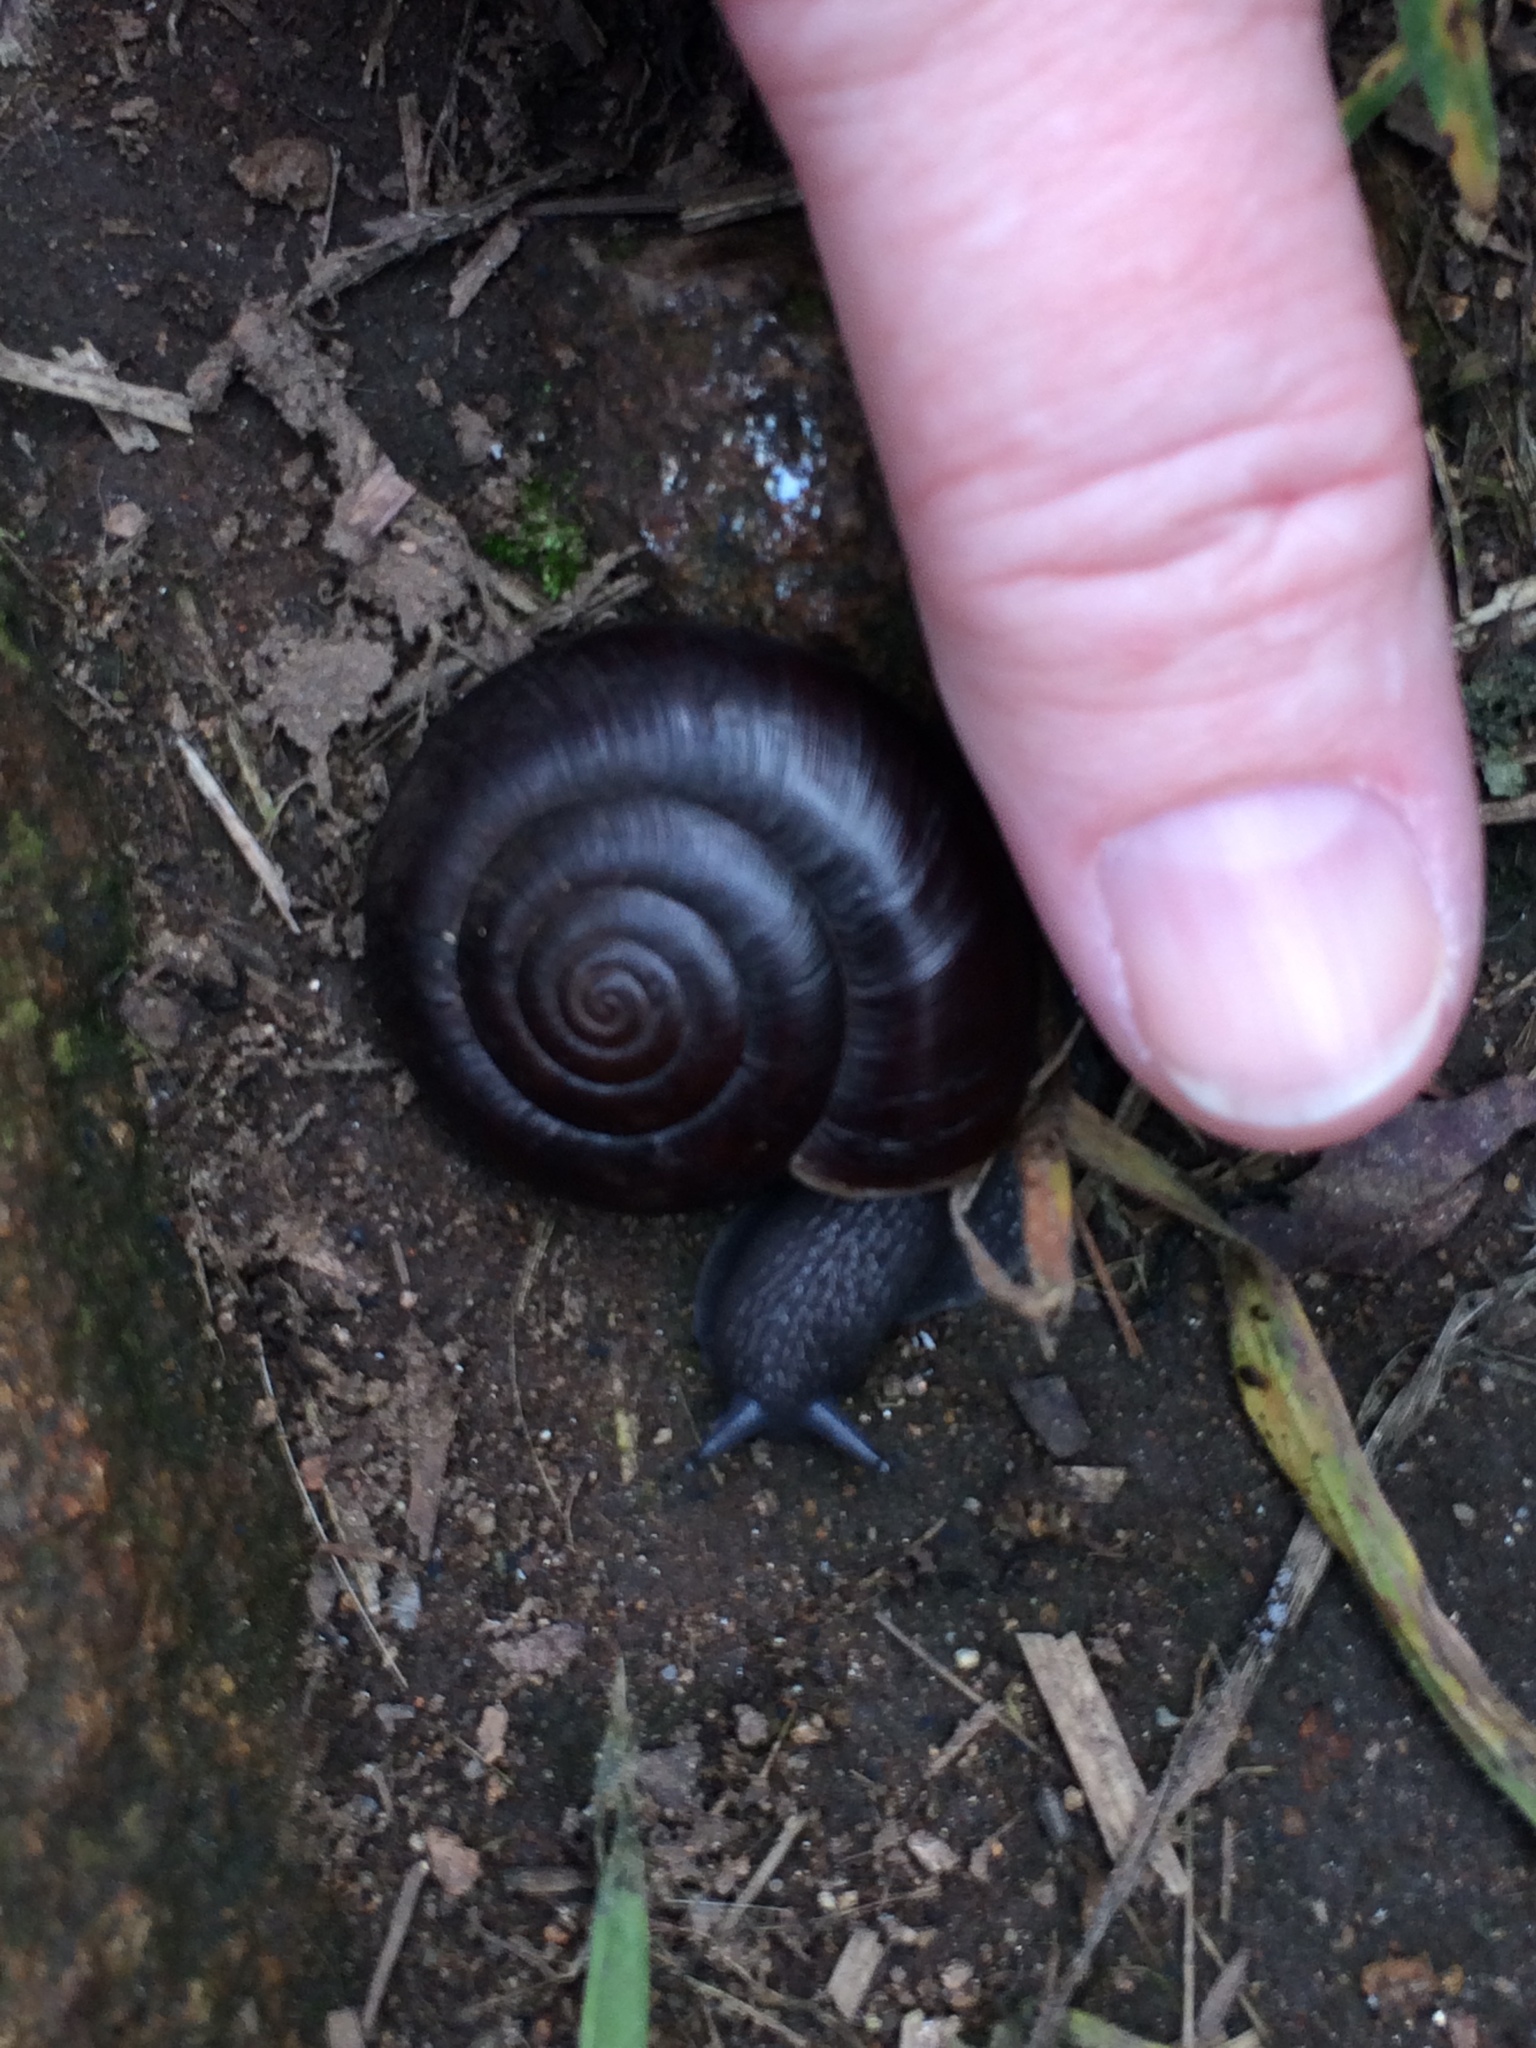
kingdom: Plantae
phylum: Tracheophyta
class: Magnoliopsida
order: Boraginales
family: Hydrophyllaceae
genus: Phacelia
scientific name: Phacelia parryi
